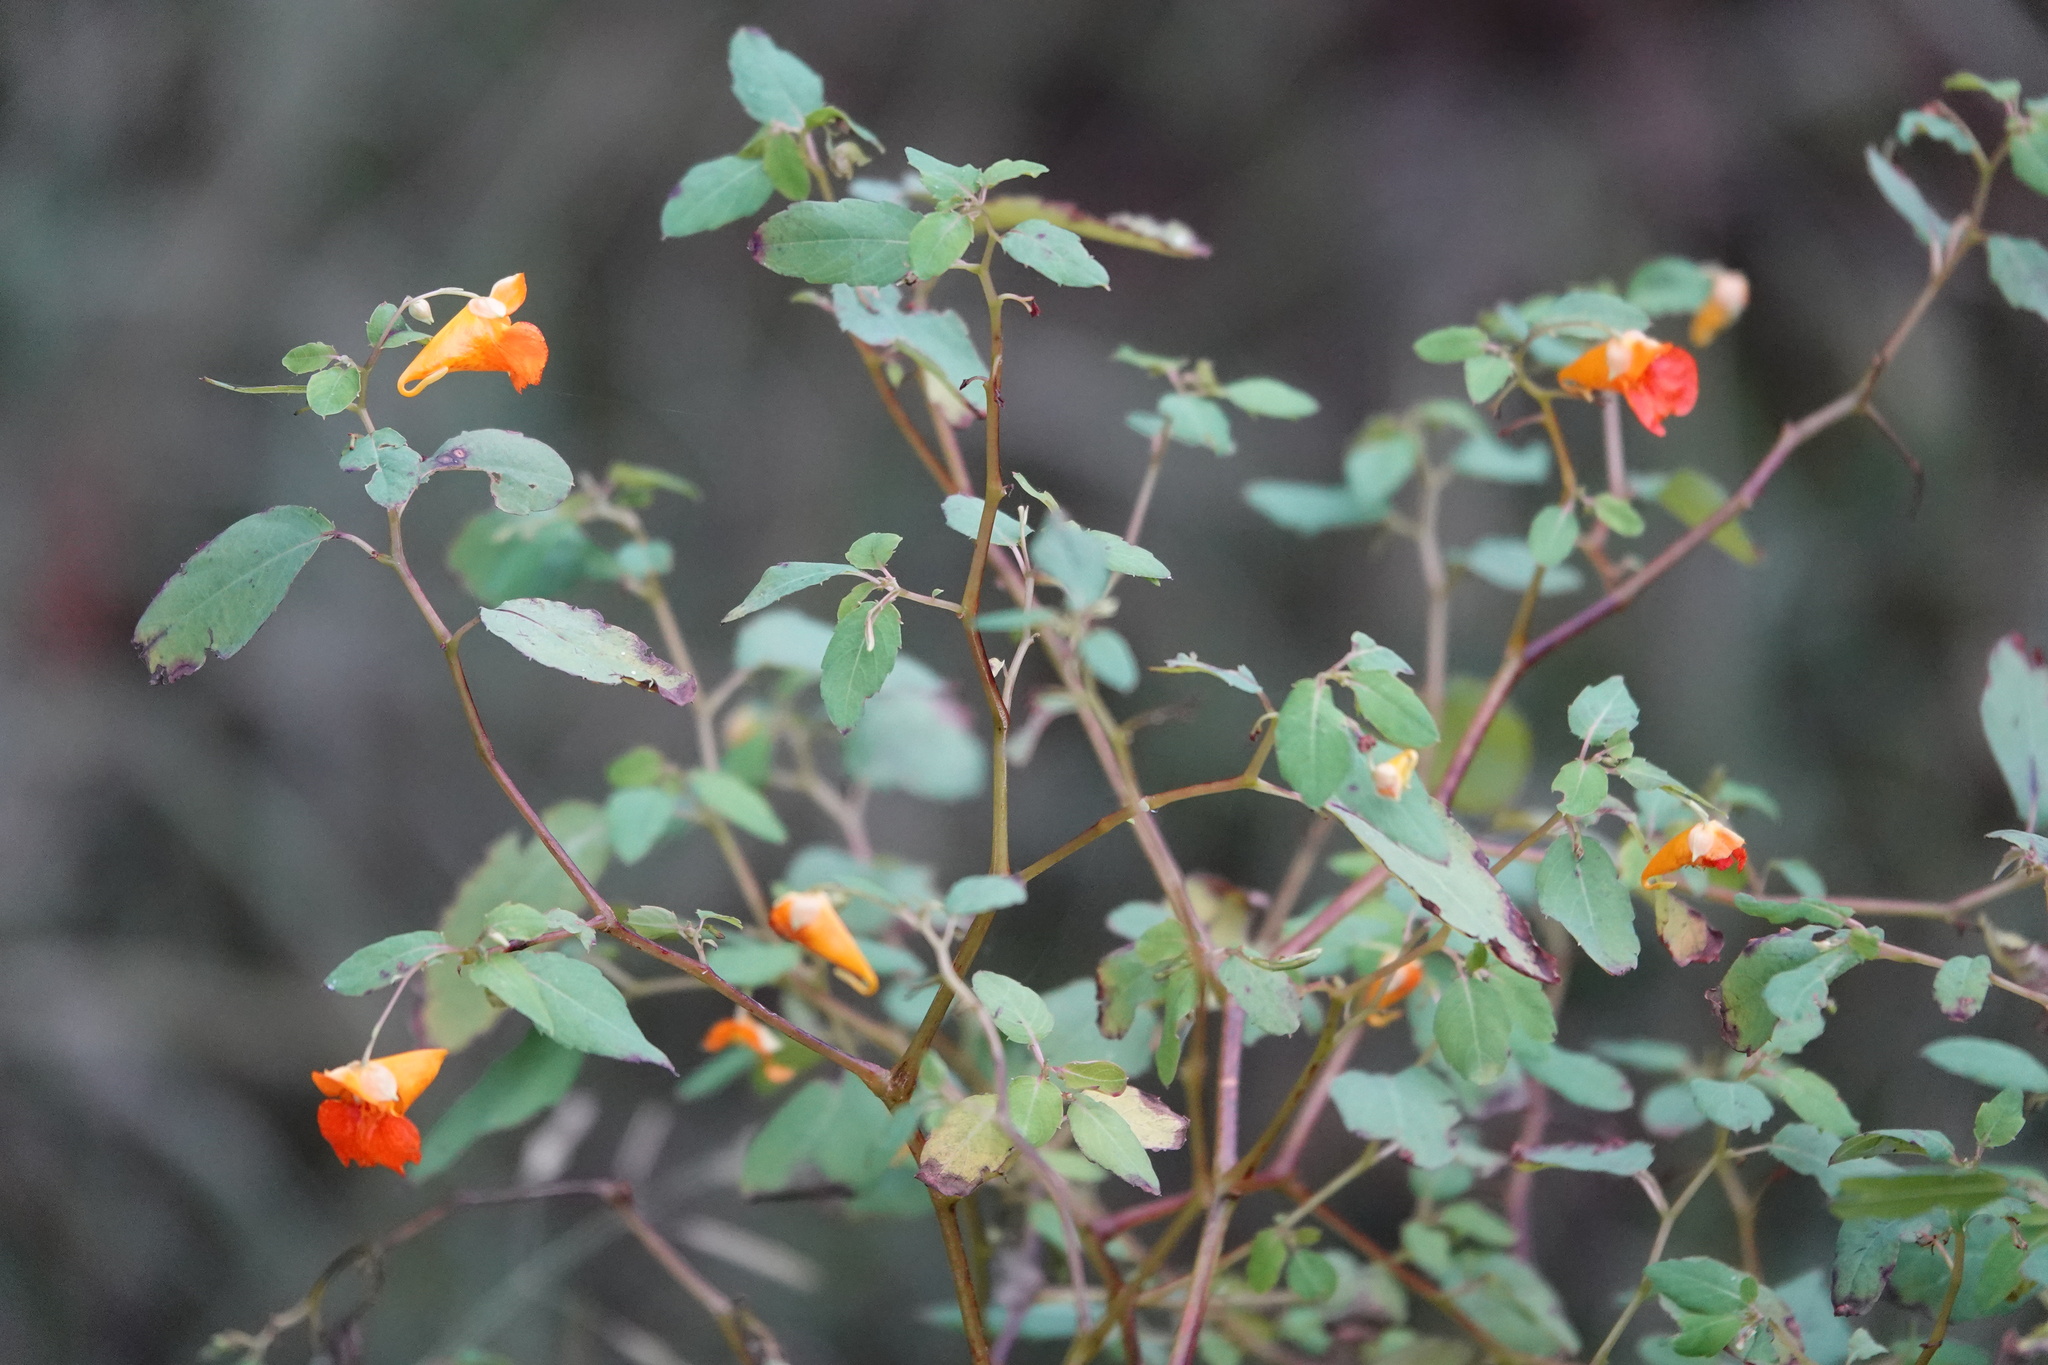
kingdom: Plantae
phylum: Tracheophyta
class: Magnoliopsida
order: Ericales
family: Balsaminaceae
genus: Impatiens
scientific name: Impatiens capensis
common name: Orange balsam
